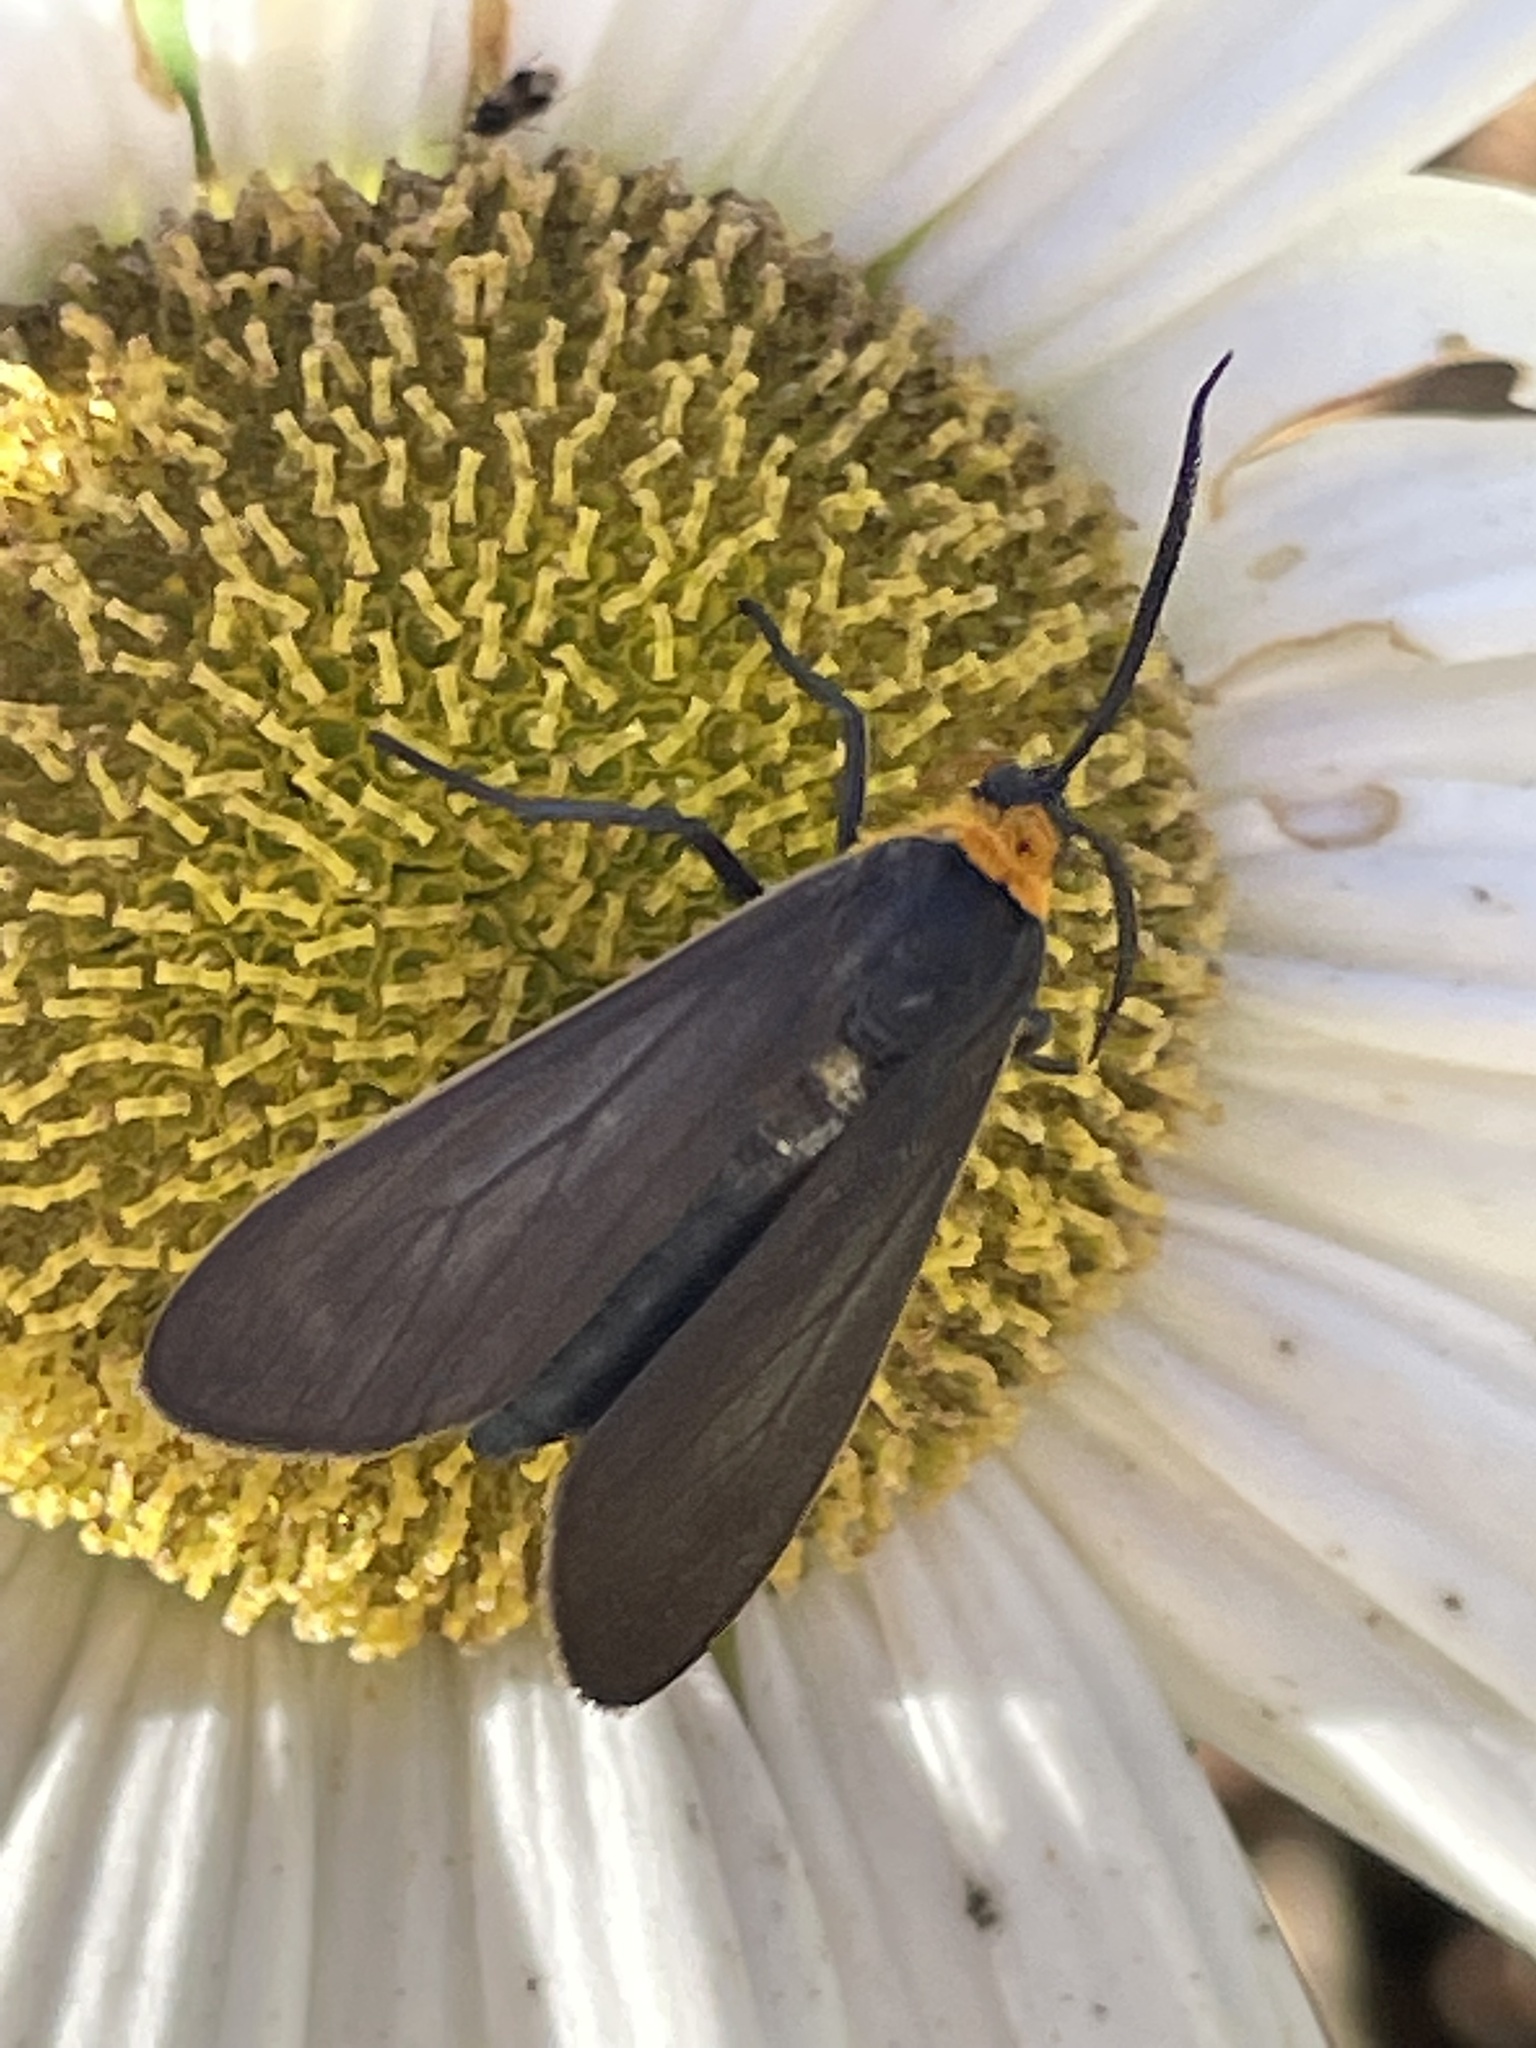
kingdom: Animalia
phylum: Arthropoda
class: Insecta
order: Lepidoptera
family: Erebidae
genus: Cisseps
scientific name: Cisseps fulvicollis
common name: Yellow-collared scape moth
